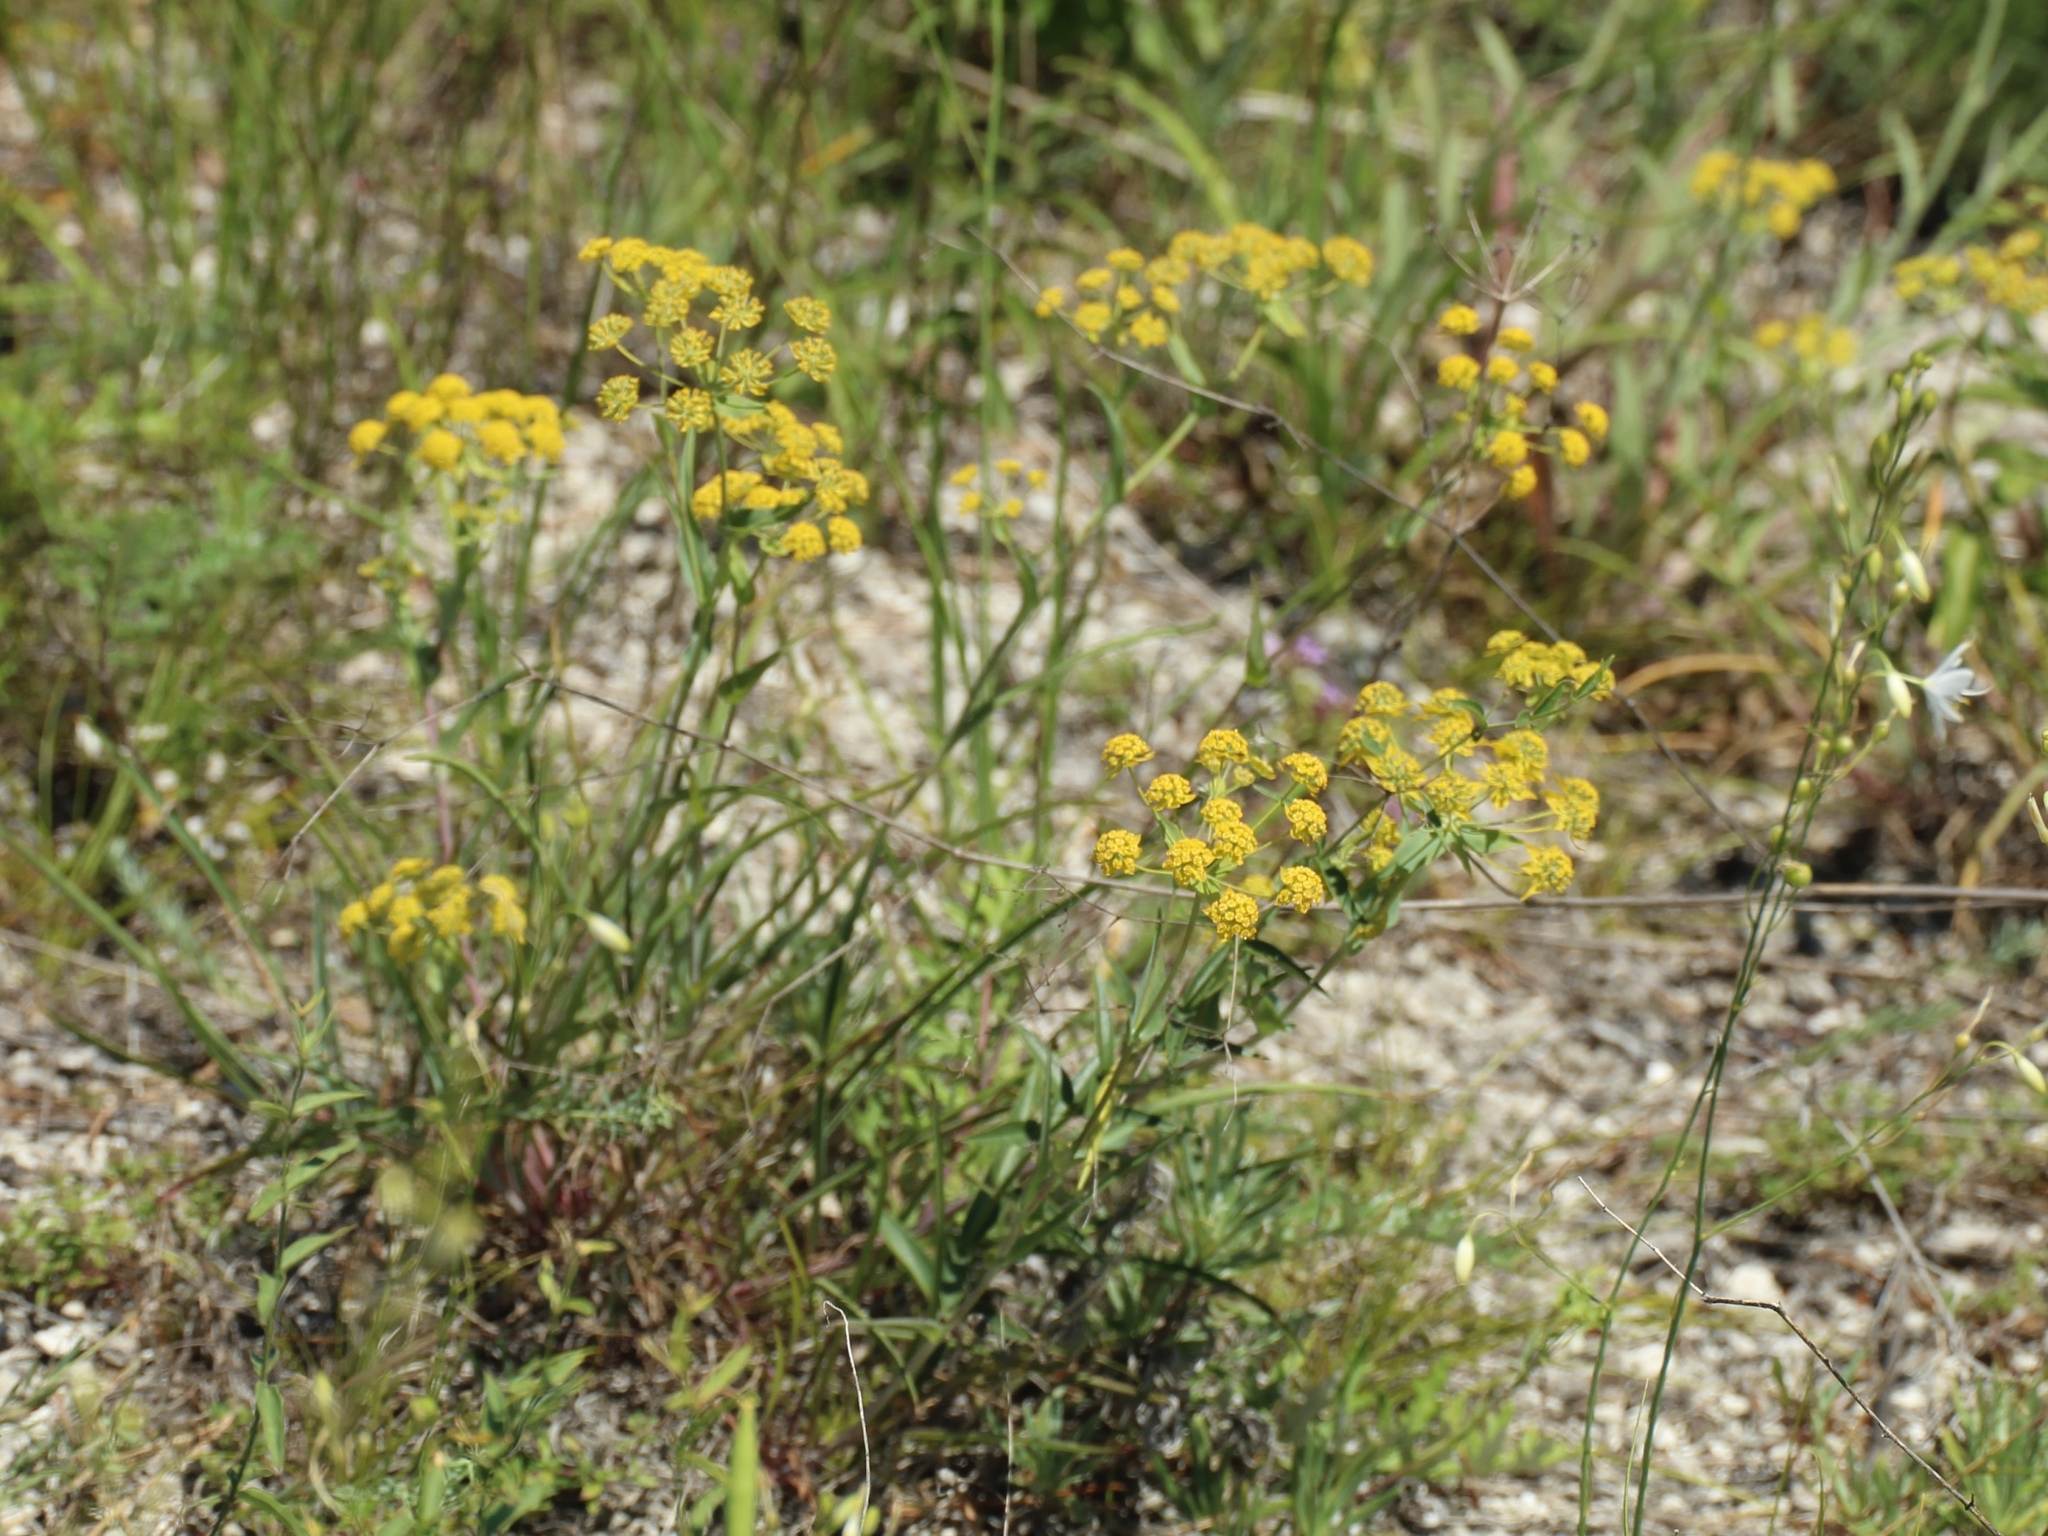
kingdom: Plantae
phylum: Tracheophyta
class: Magnoliopsida
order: Apiales
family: Apiaceae
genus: Bupleurum
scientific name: Bupleurum multinerve
